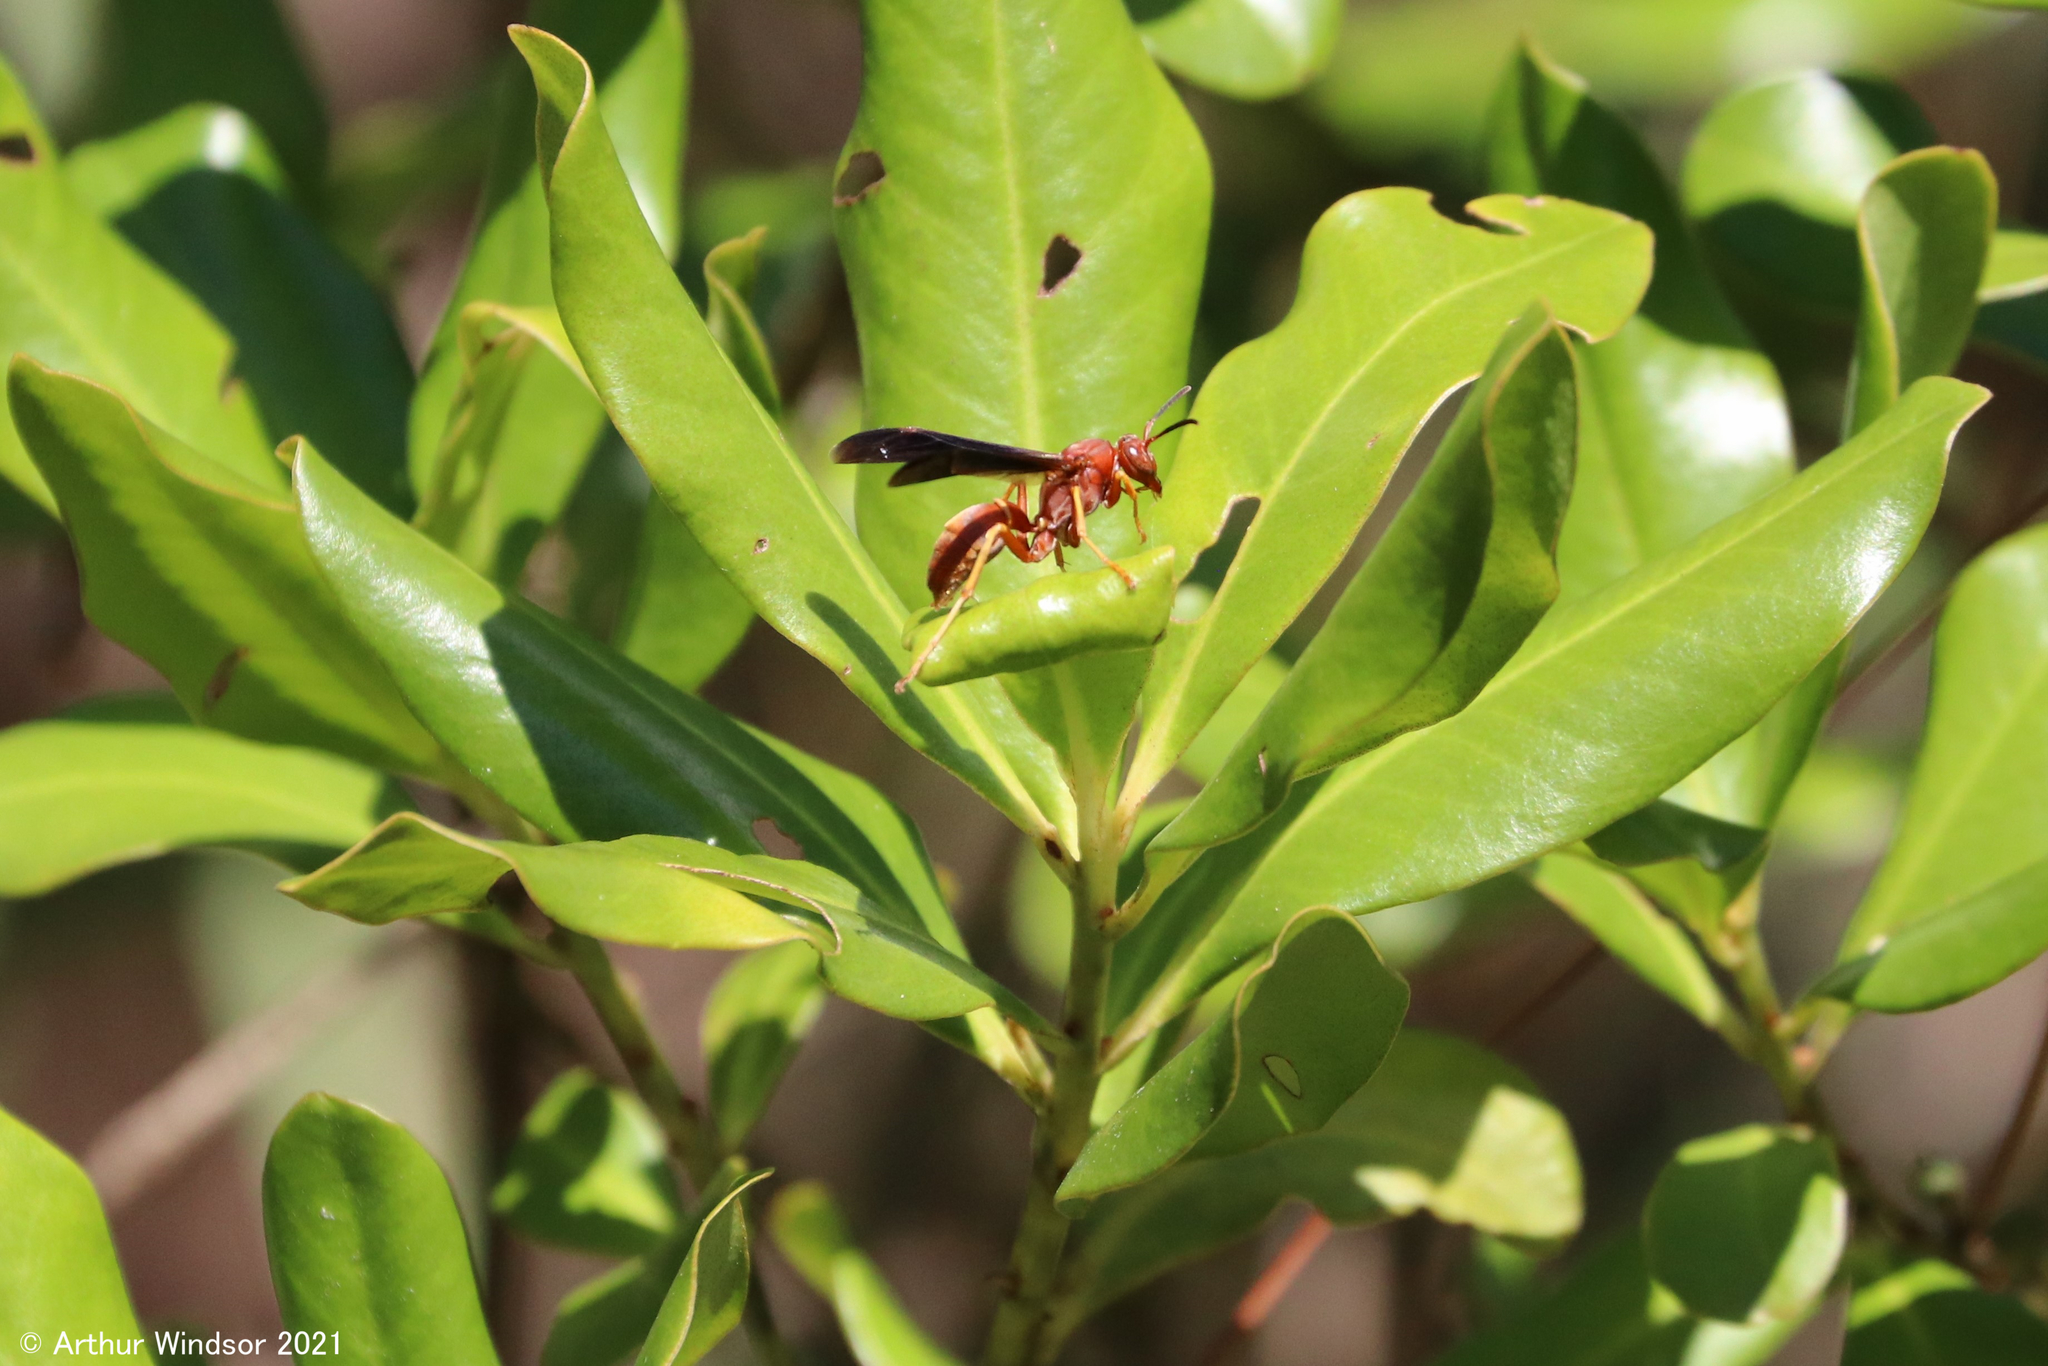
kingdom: Animalia
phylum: Arthropoda
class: Insecta
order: Hymenoptera
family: Vespidae
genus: Fuscopolistes
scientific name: Fuscopolistes
